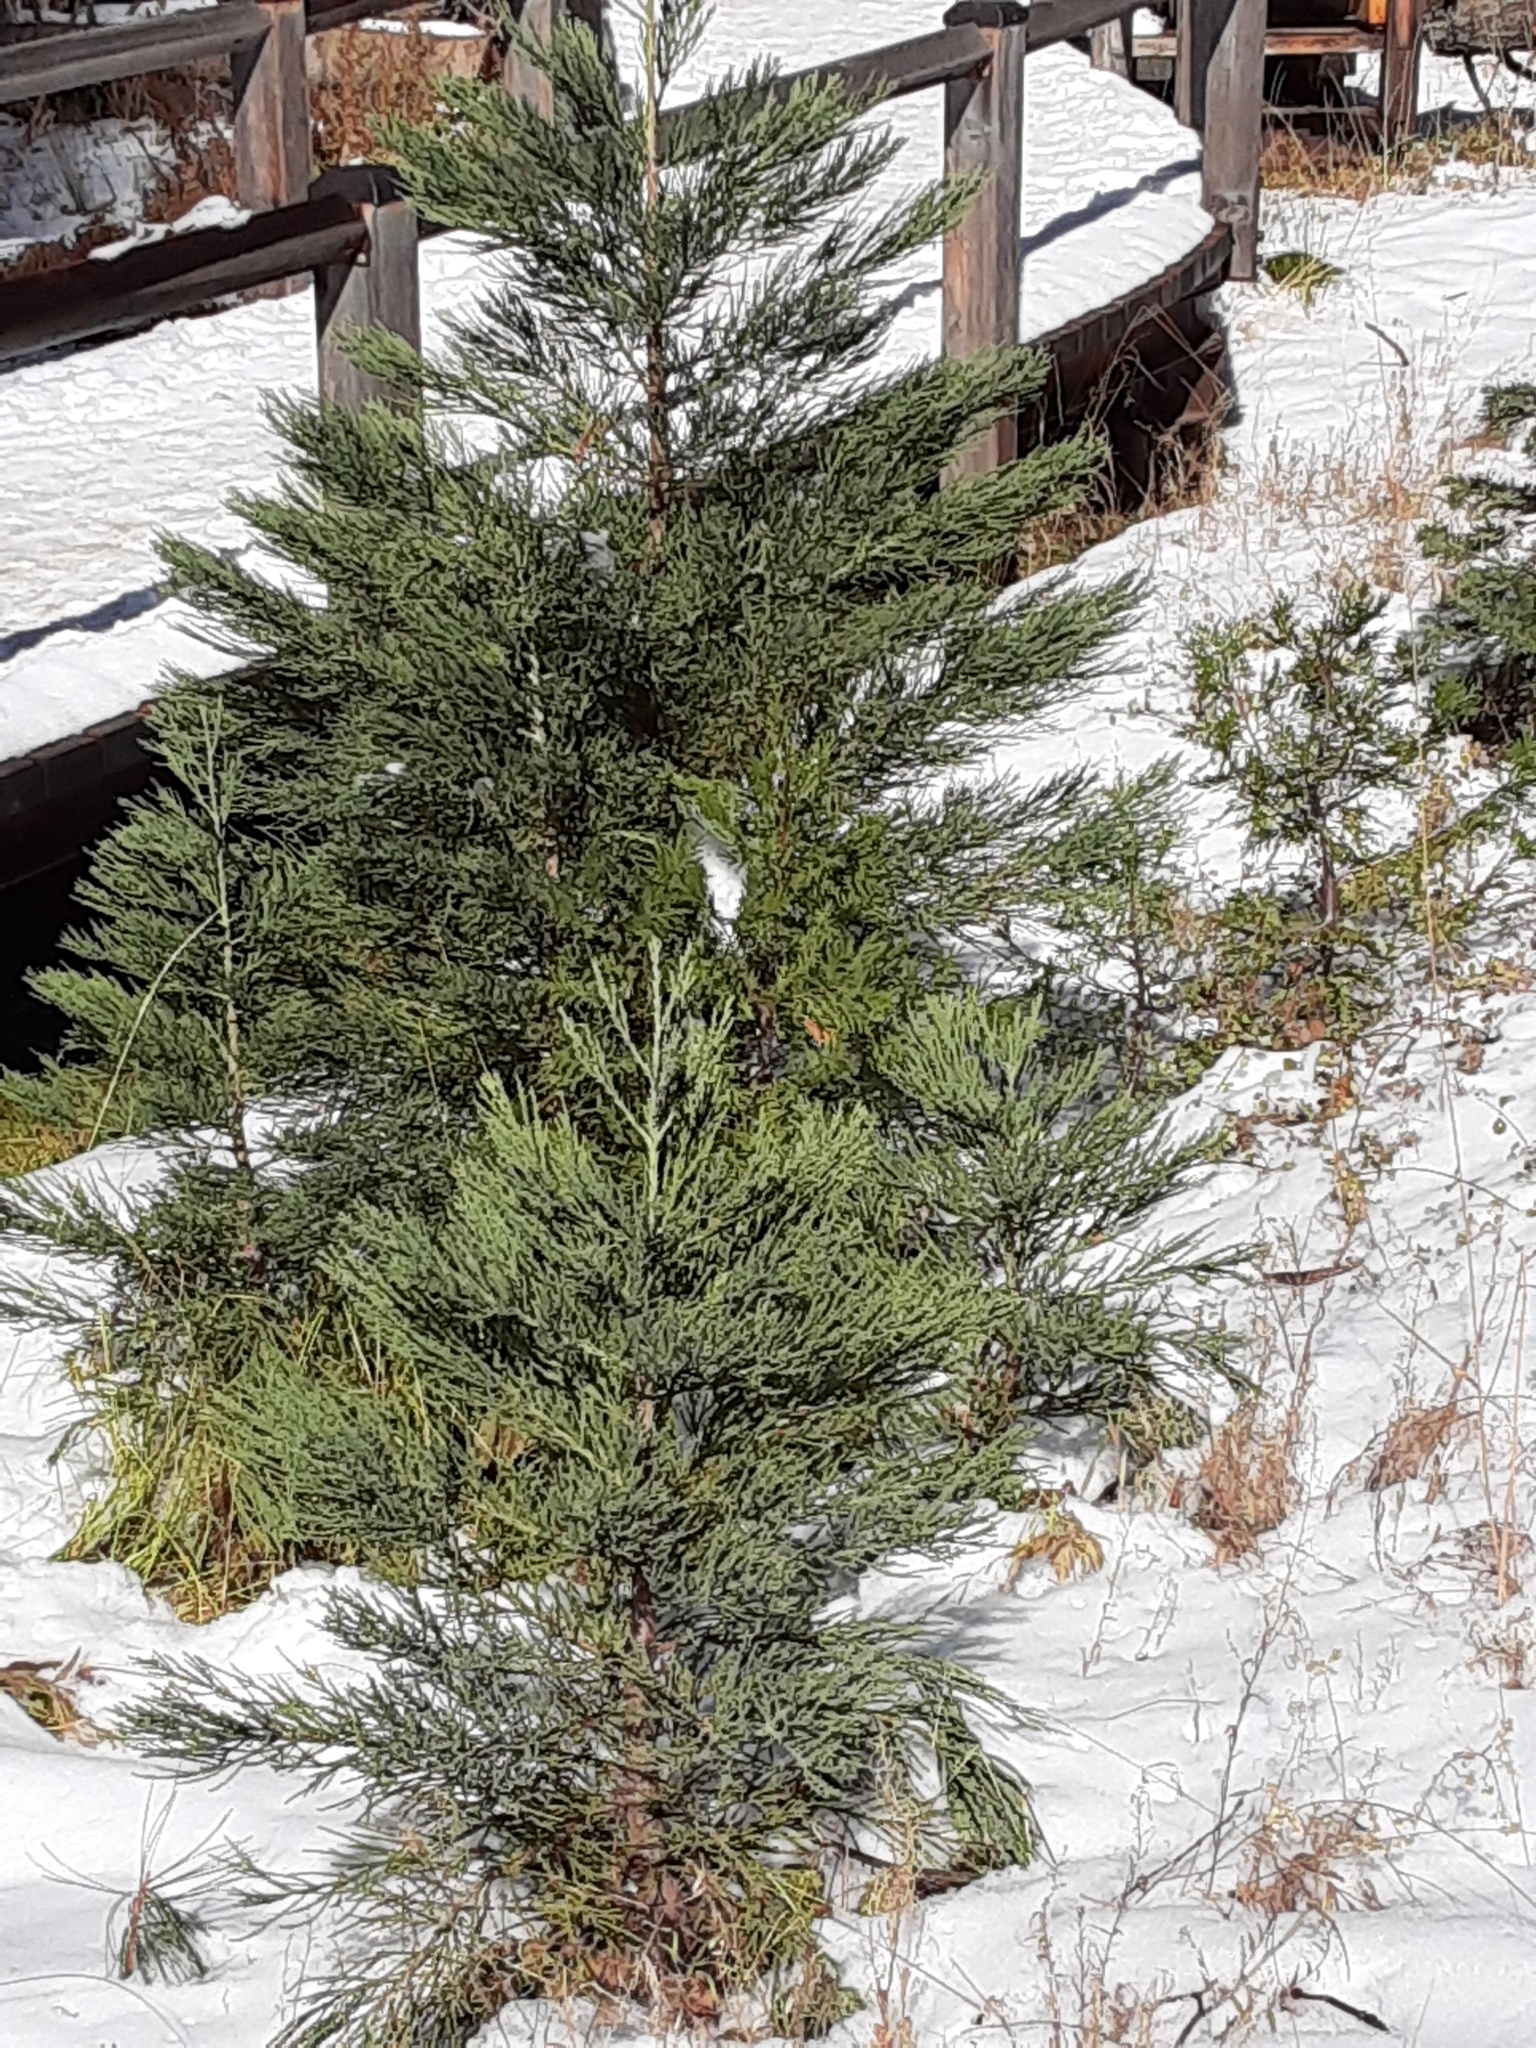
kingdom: Plantae
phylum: Tracheophyta
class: Pinopsida
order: Pinales
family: Cupressaceae
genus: Sequoiadendron
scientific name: Sequoiadendron giganteum
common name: Wellingtonia
